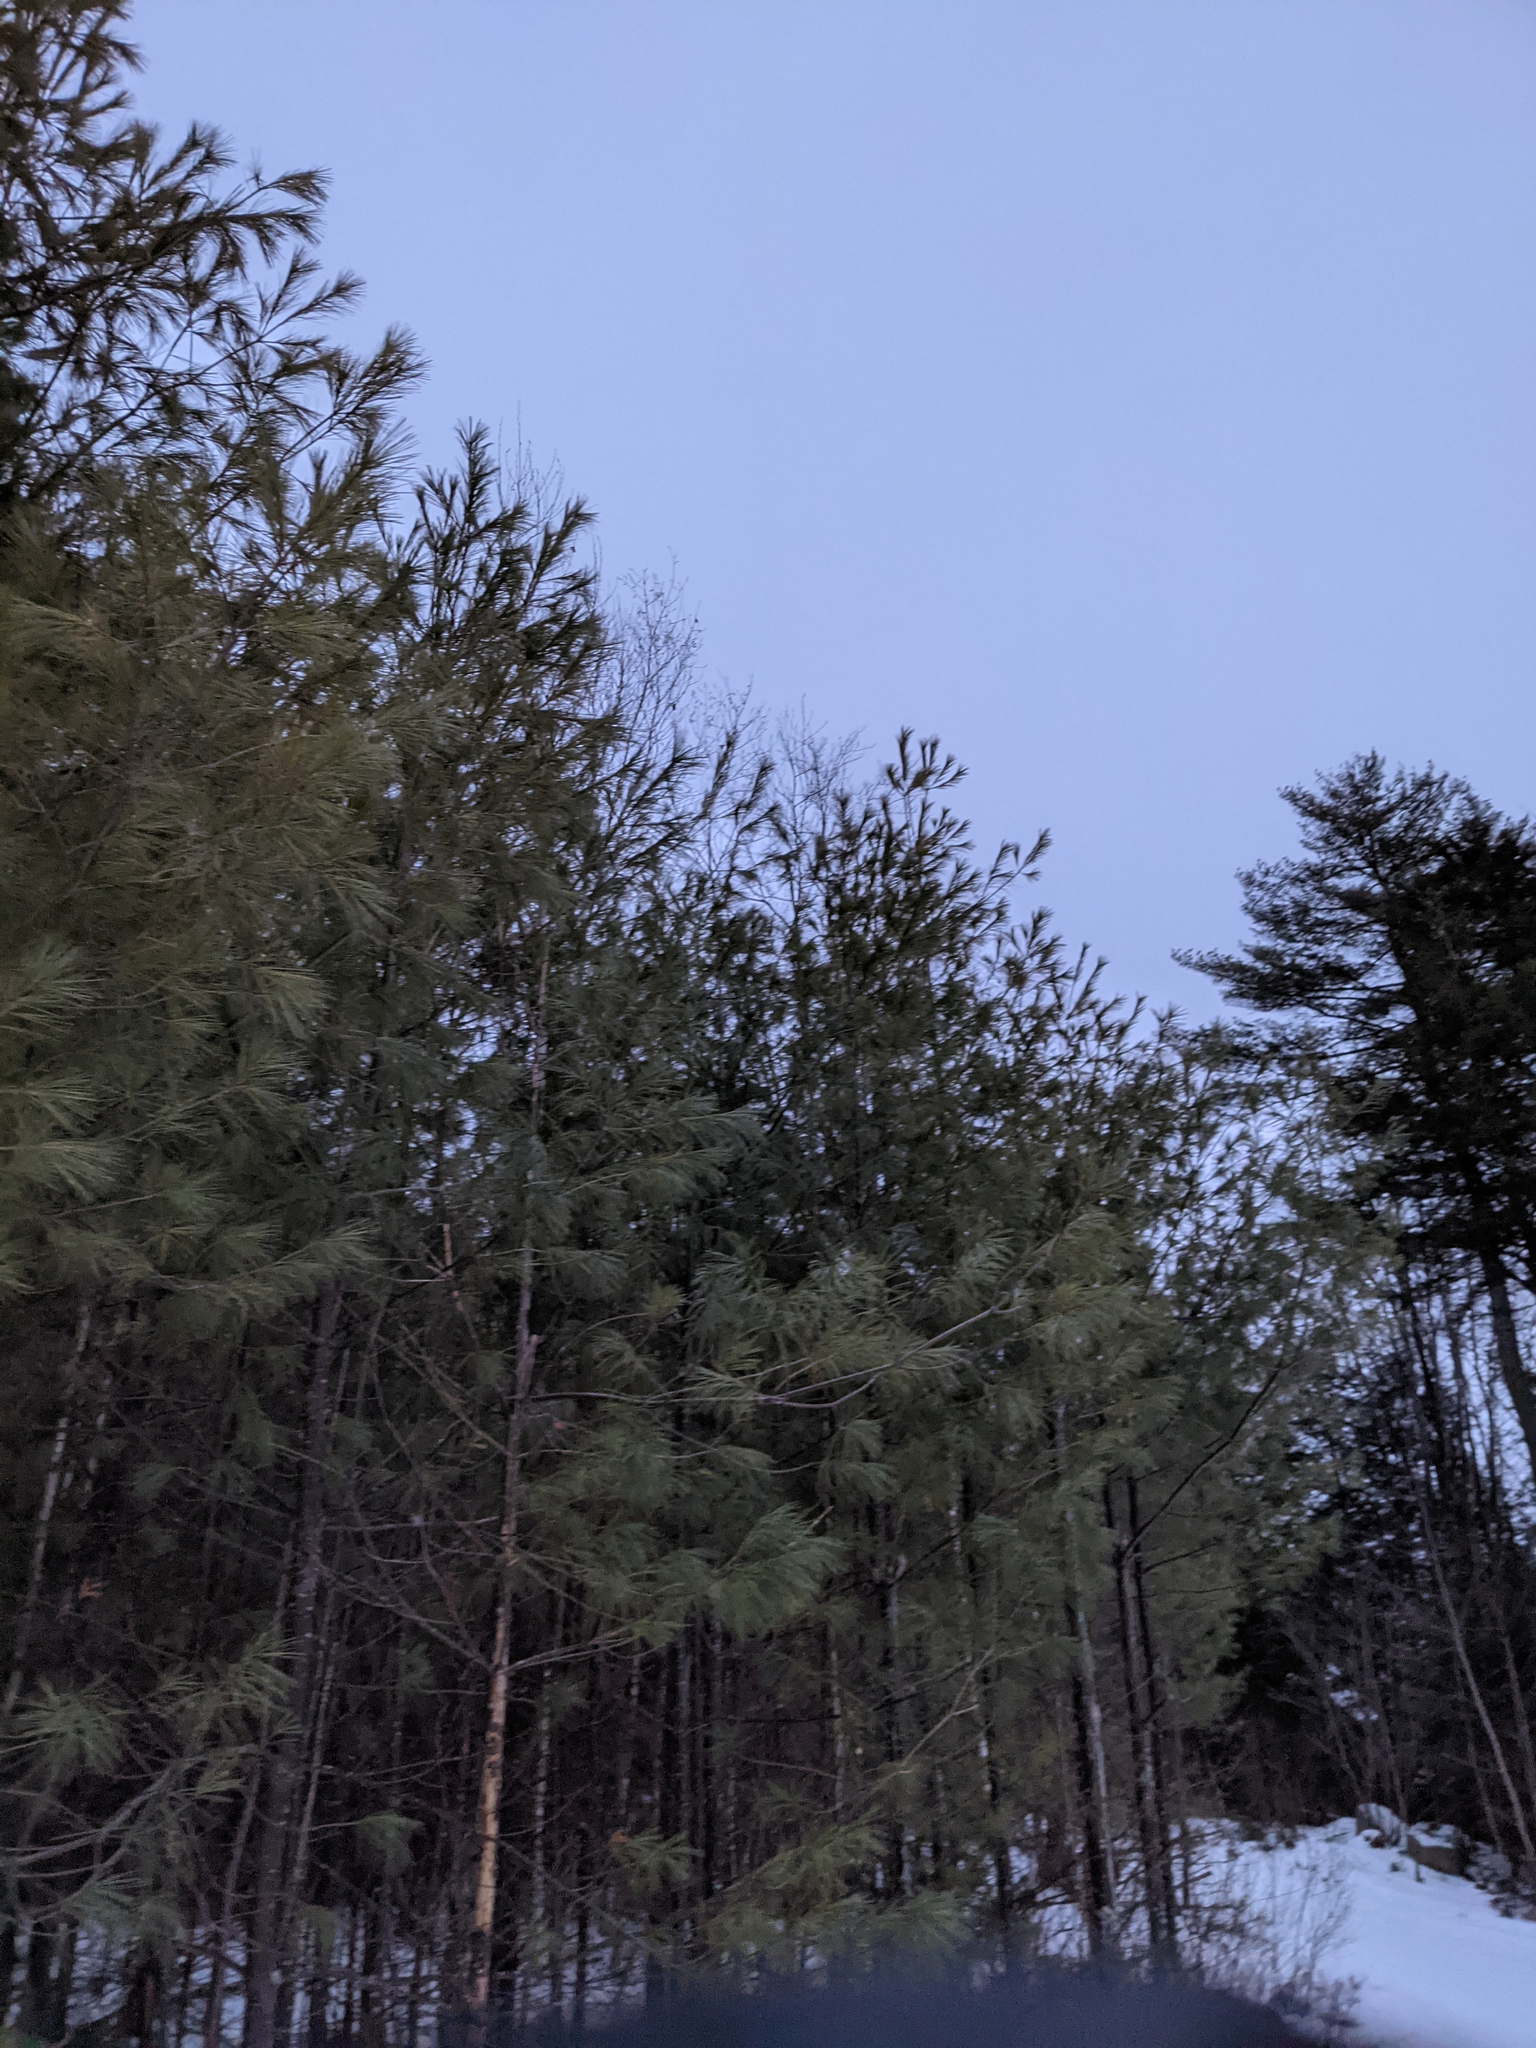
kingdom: Plantae
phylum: Tracheophyta
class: Pinopsida
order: Pinales
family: Pinaceae
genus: Pinus
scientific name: Pinus strobus
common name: Weymouth pine
